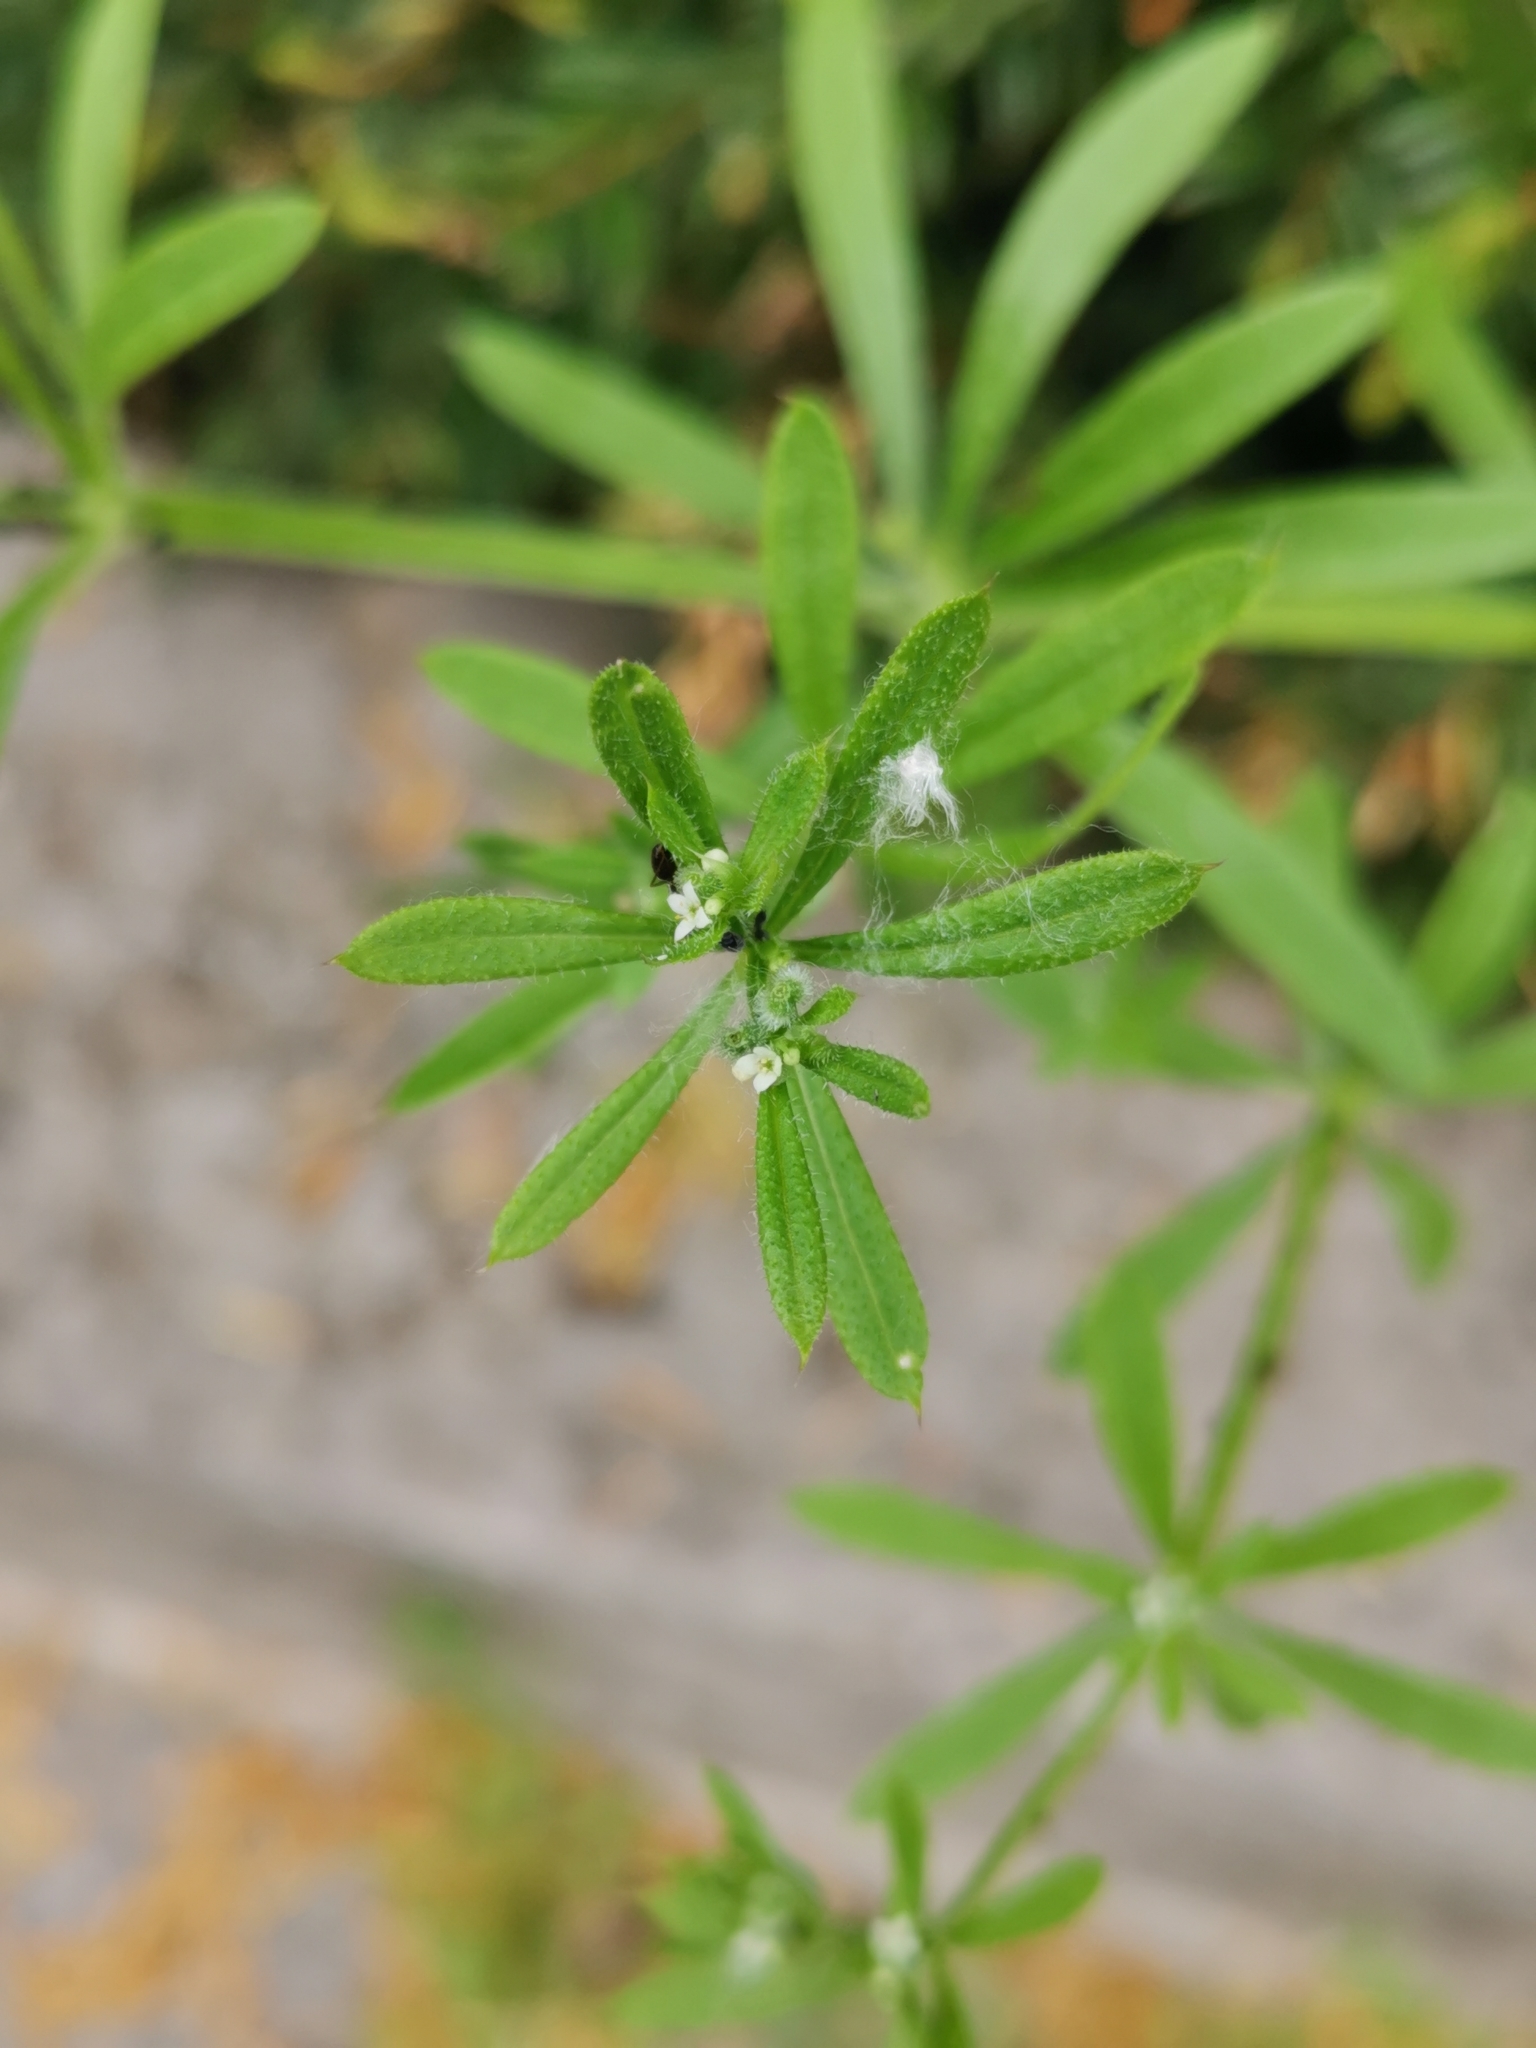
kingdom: Plantae
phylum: Tracheophyta
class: Magnoliopsida
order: Gentianales
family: Rubiaceae
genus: Galium
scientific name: Galium aparine
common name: Cleavers
